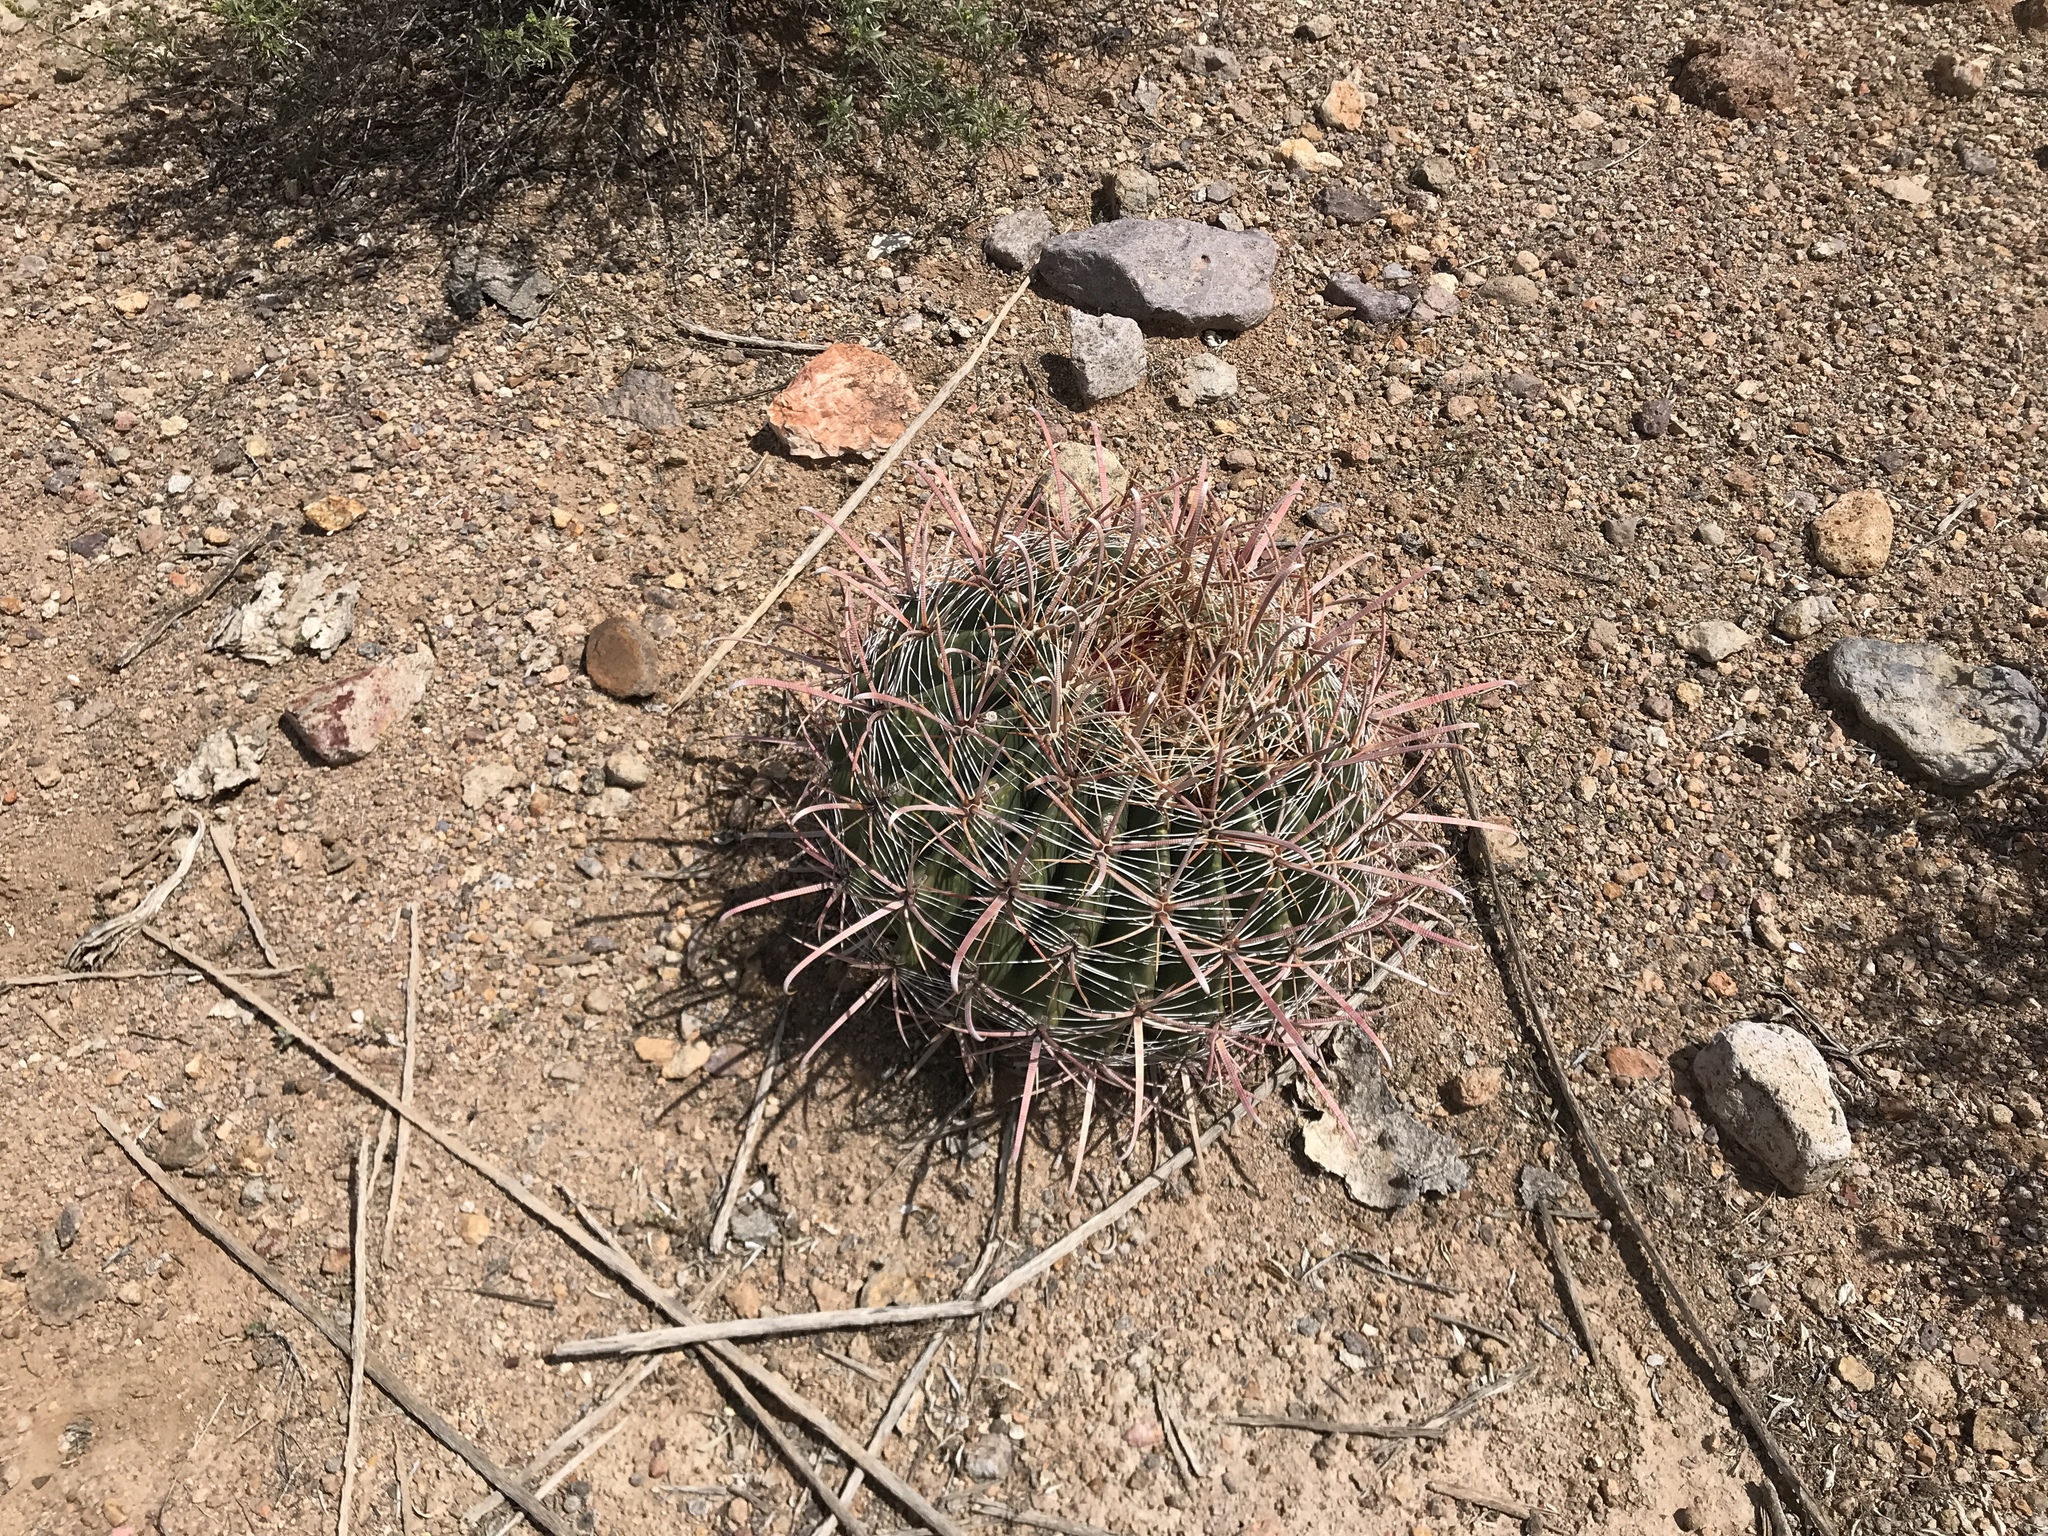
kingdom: Plantae
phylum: Tracheophyta
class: Magnoliopsida
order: Caryophyllales
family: Cactaceae
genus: Ferocactus
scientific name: Ferocactus wislizeni
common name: Candy barrel cactus
